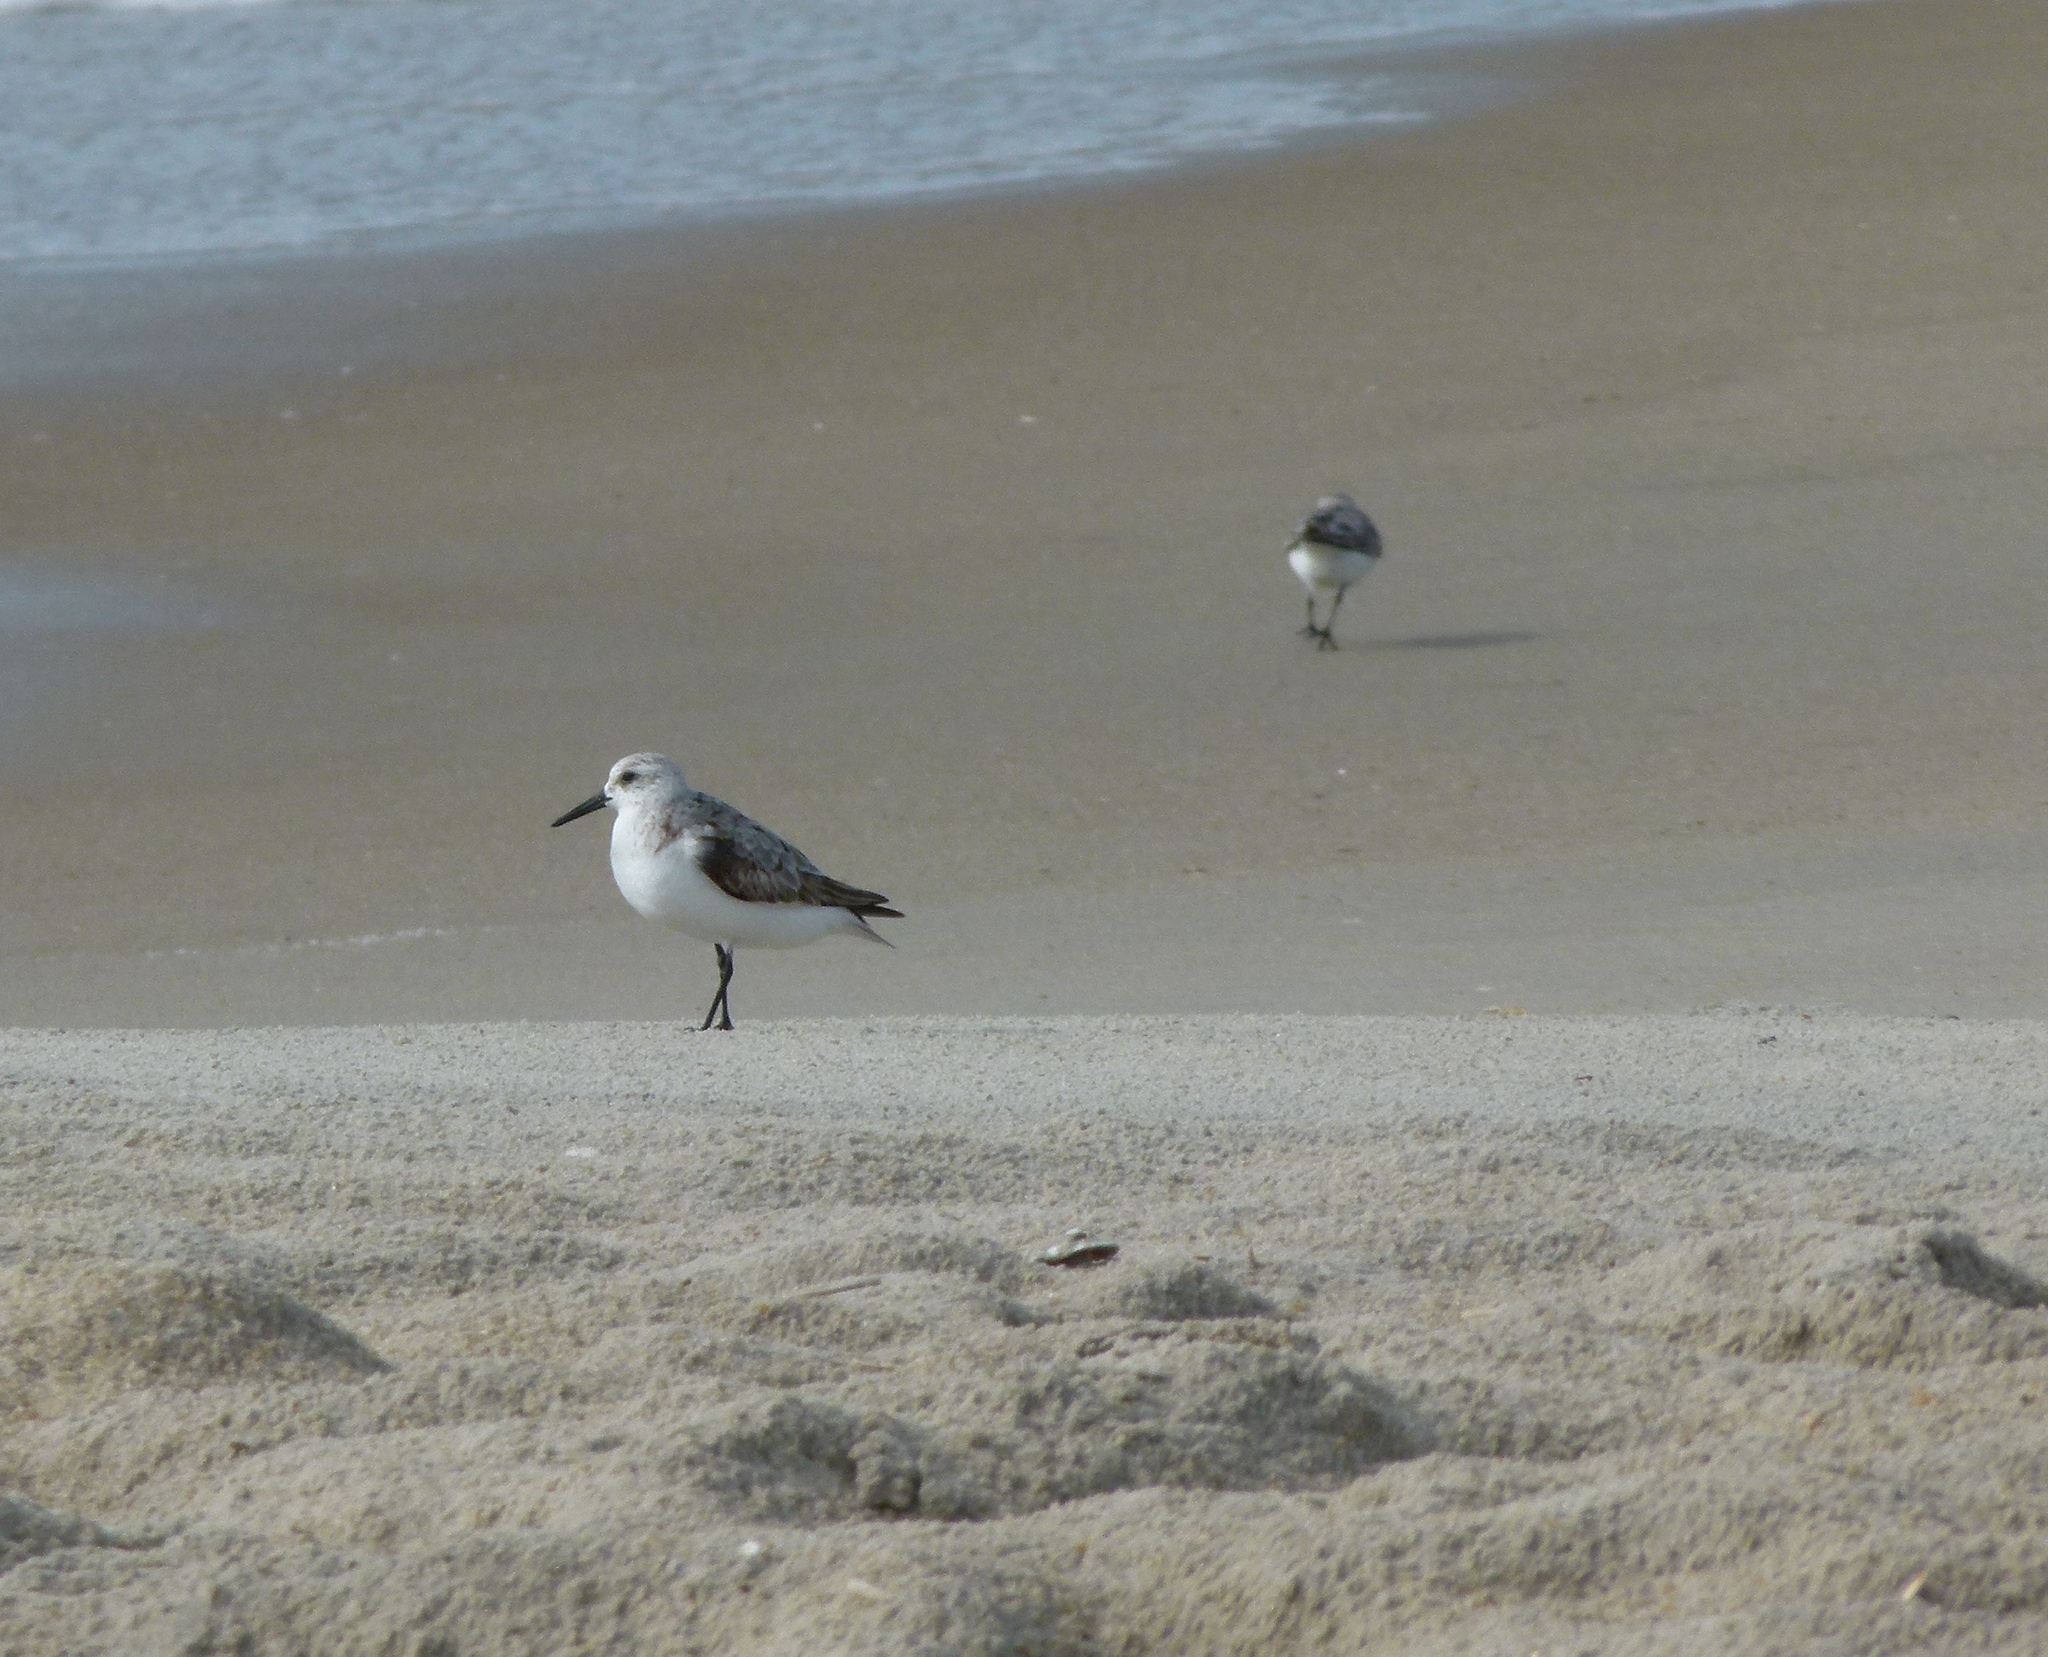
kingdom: Animalia
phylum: Chordata
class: Aves
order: Charadriiformes
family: Scolopacidae
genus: Calidris
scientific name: Calidris alba
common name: Sanderling
